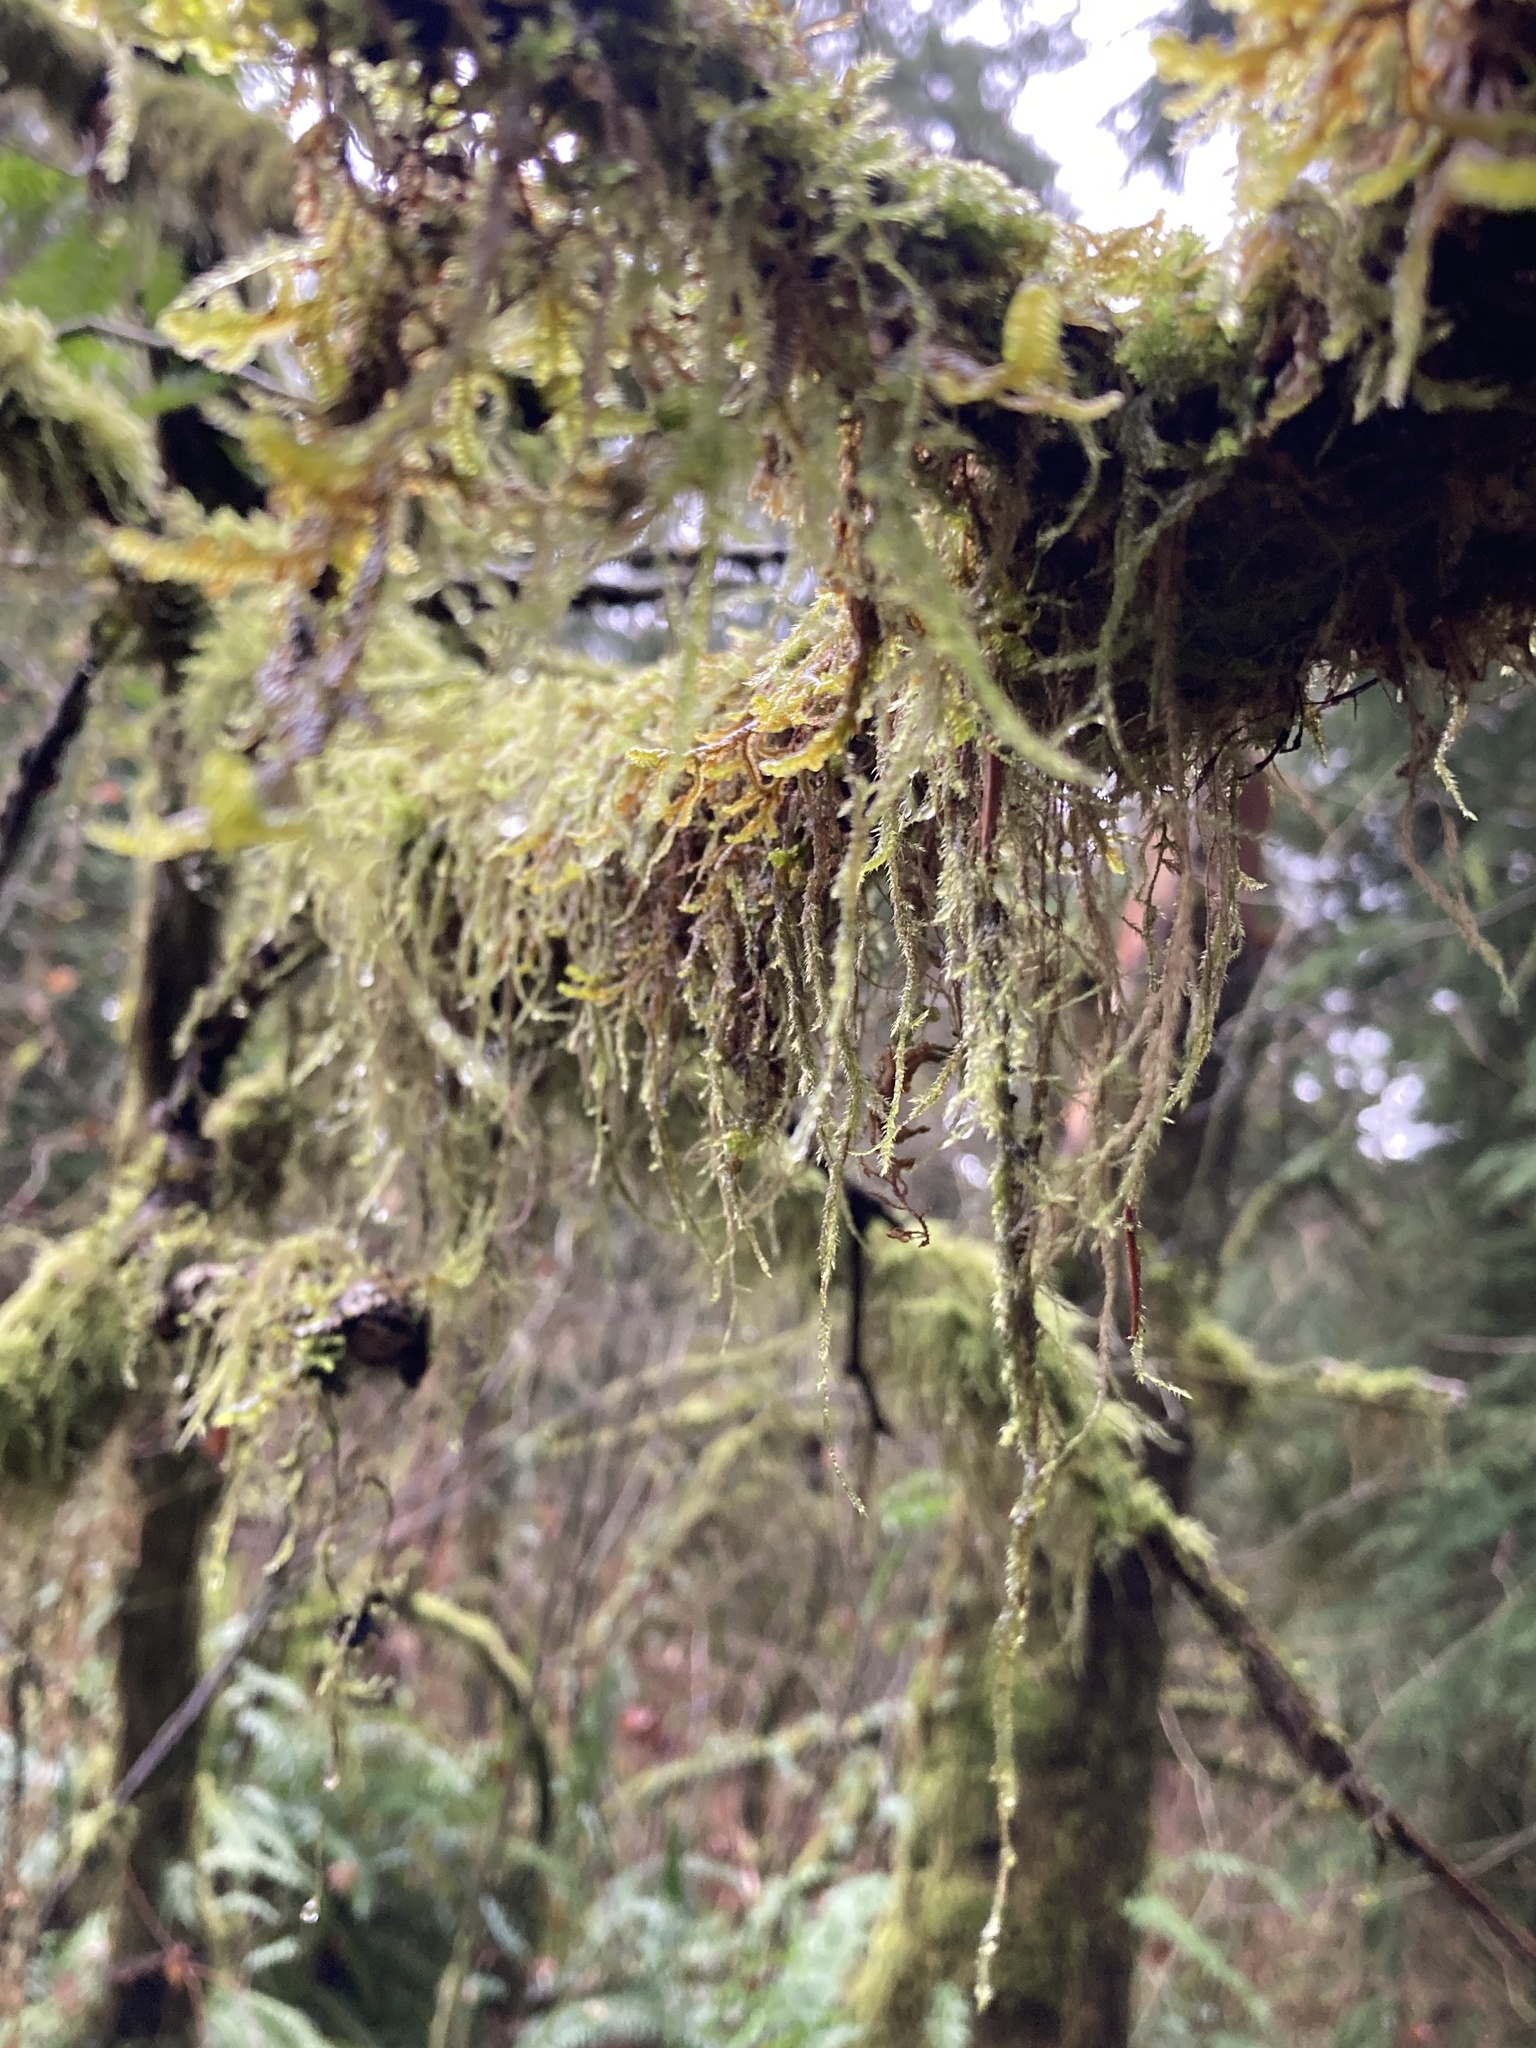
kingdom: Plantae
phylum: Bryophyta
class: Bryopsida
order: Hypnales
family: Lembophyllaceae
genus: Pseudisothecium
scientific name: Pseudisothecium stoloniferum
